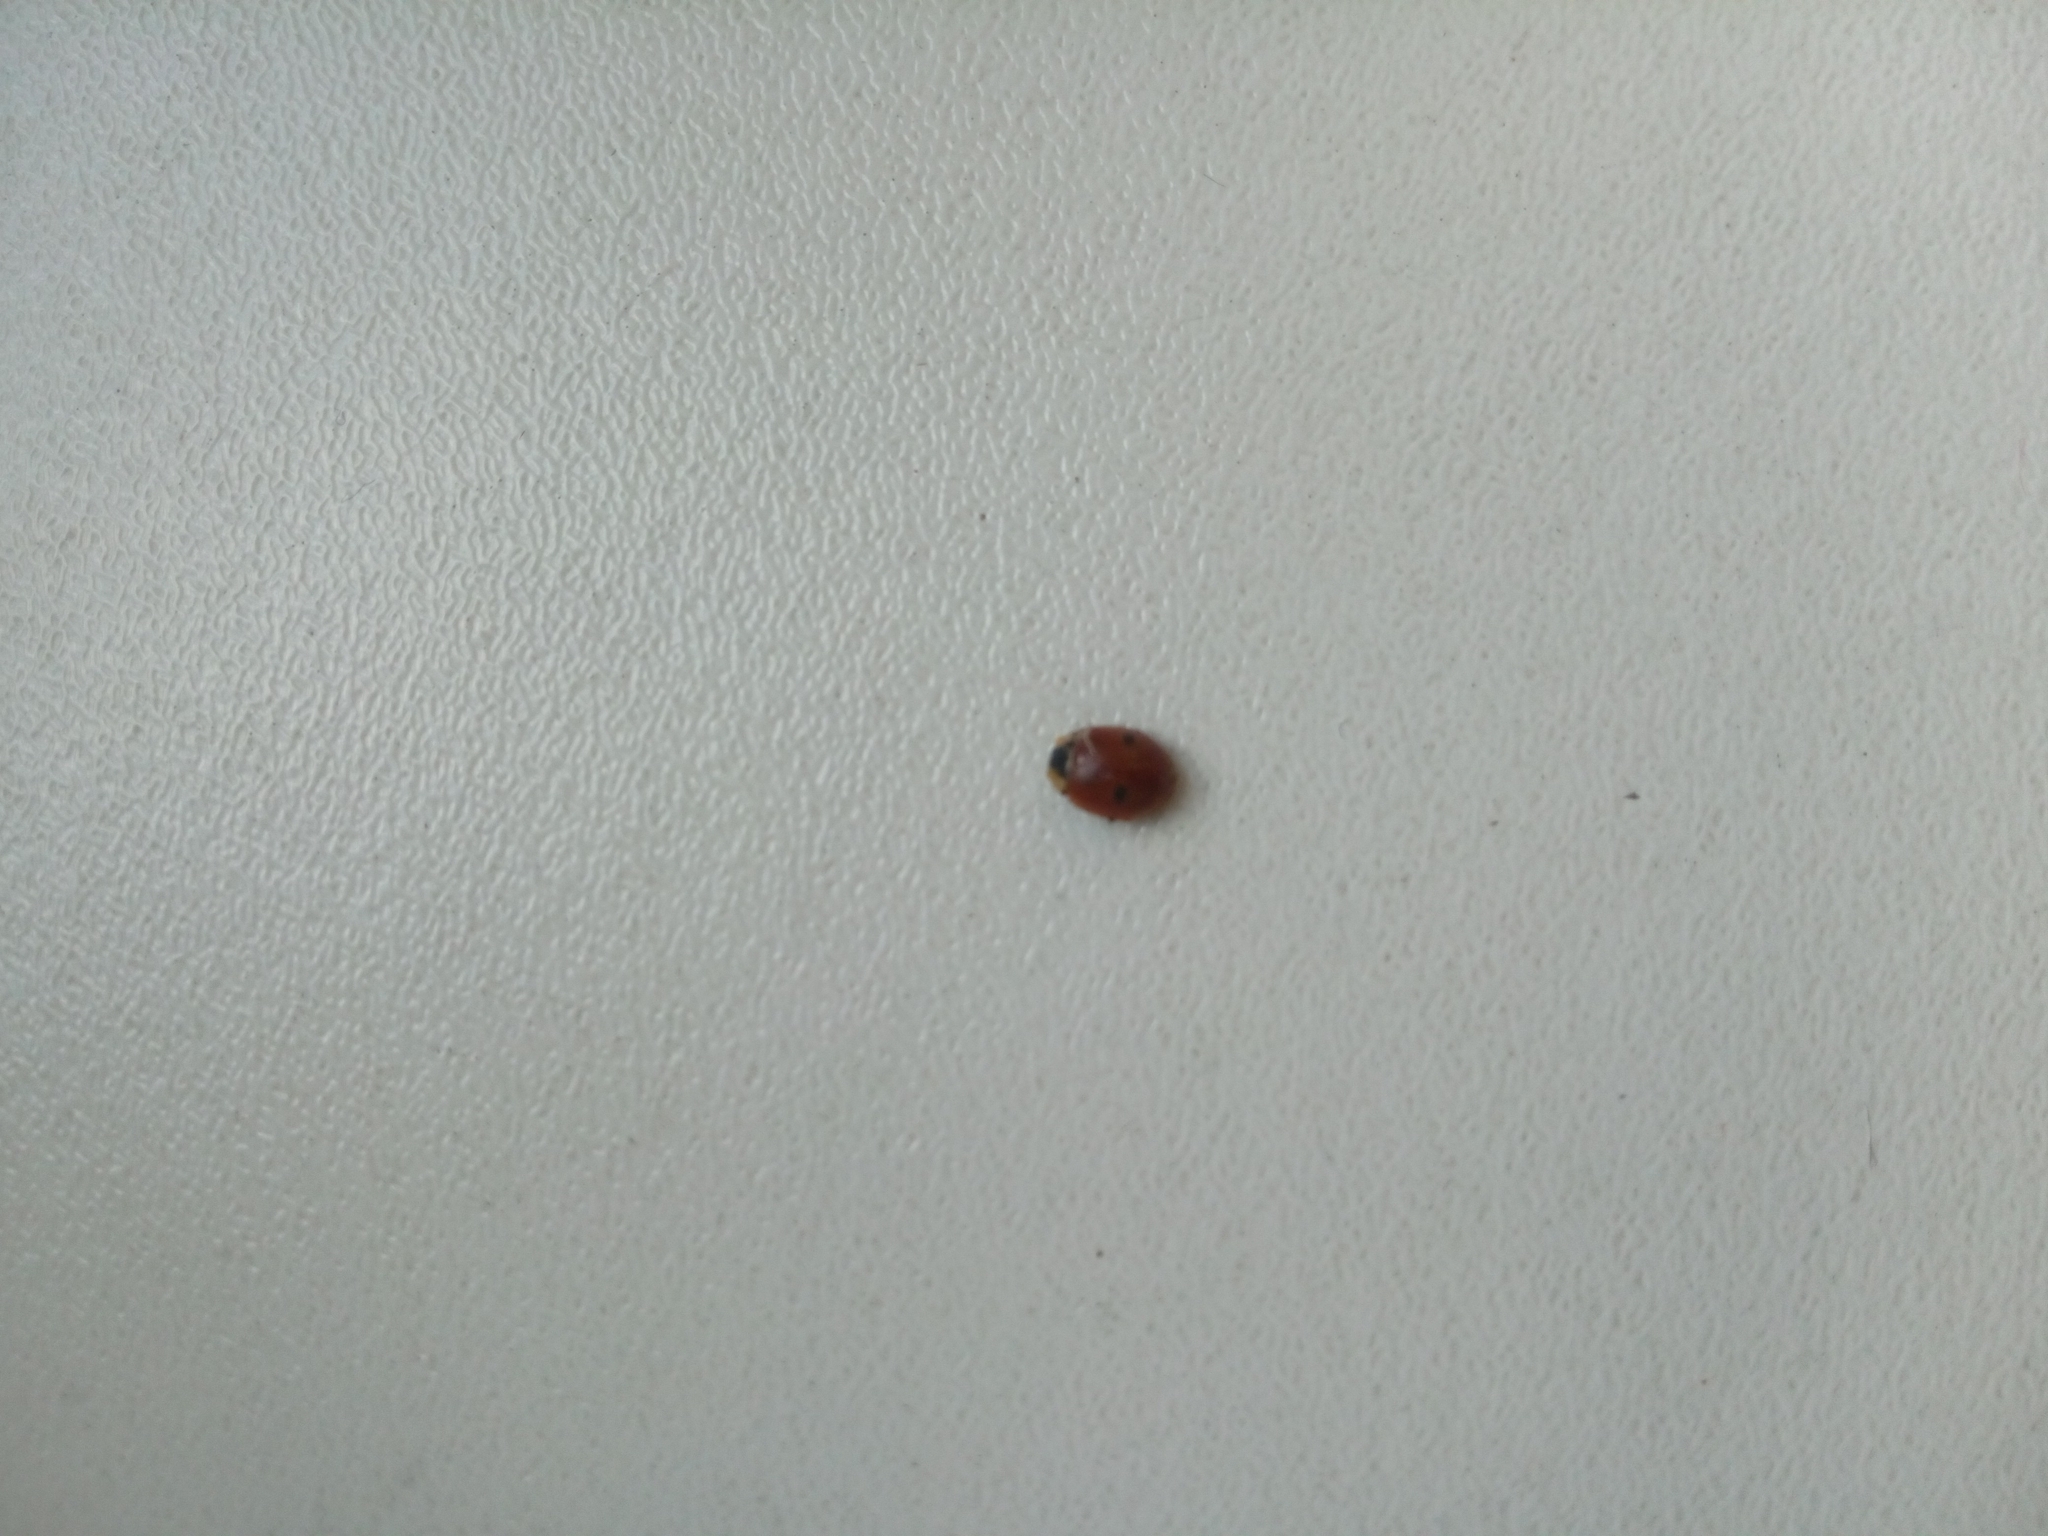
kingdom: Animalia
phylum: Arthropoda
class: Insecta
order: Coleoptera
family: Coccinellidae
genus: Adalia
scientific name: Adalia bipunctata
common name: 2-spot ladybird
